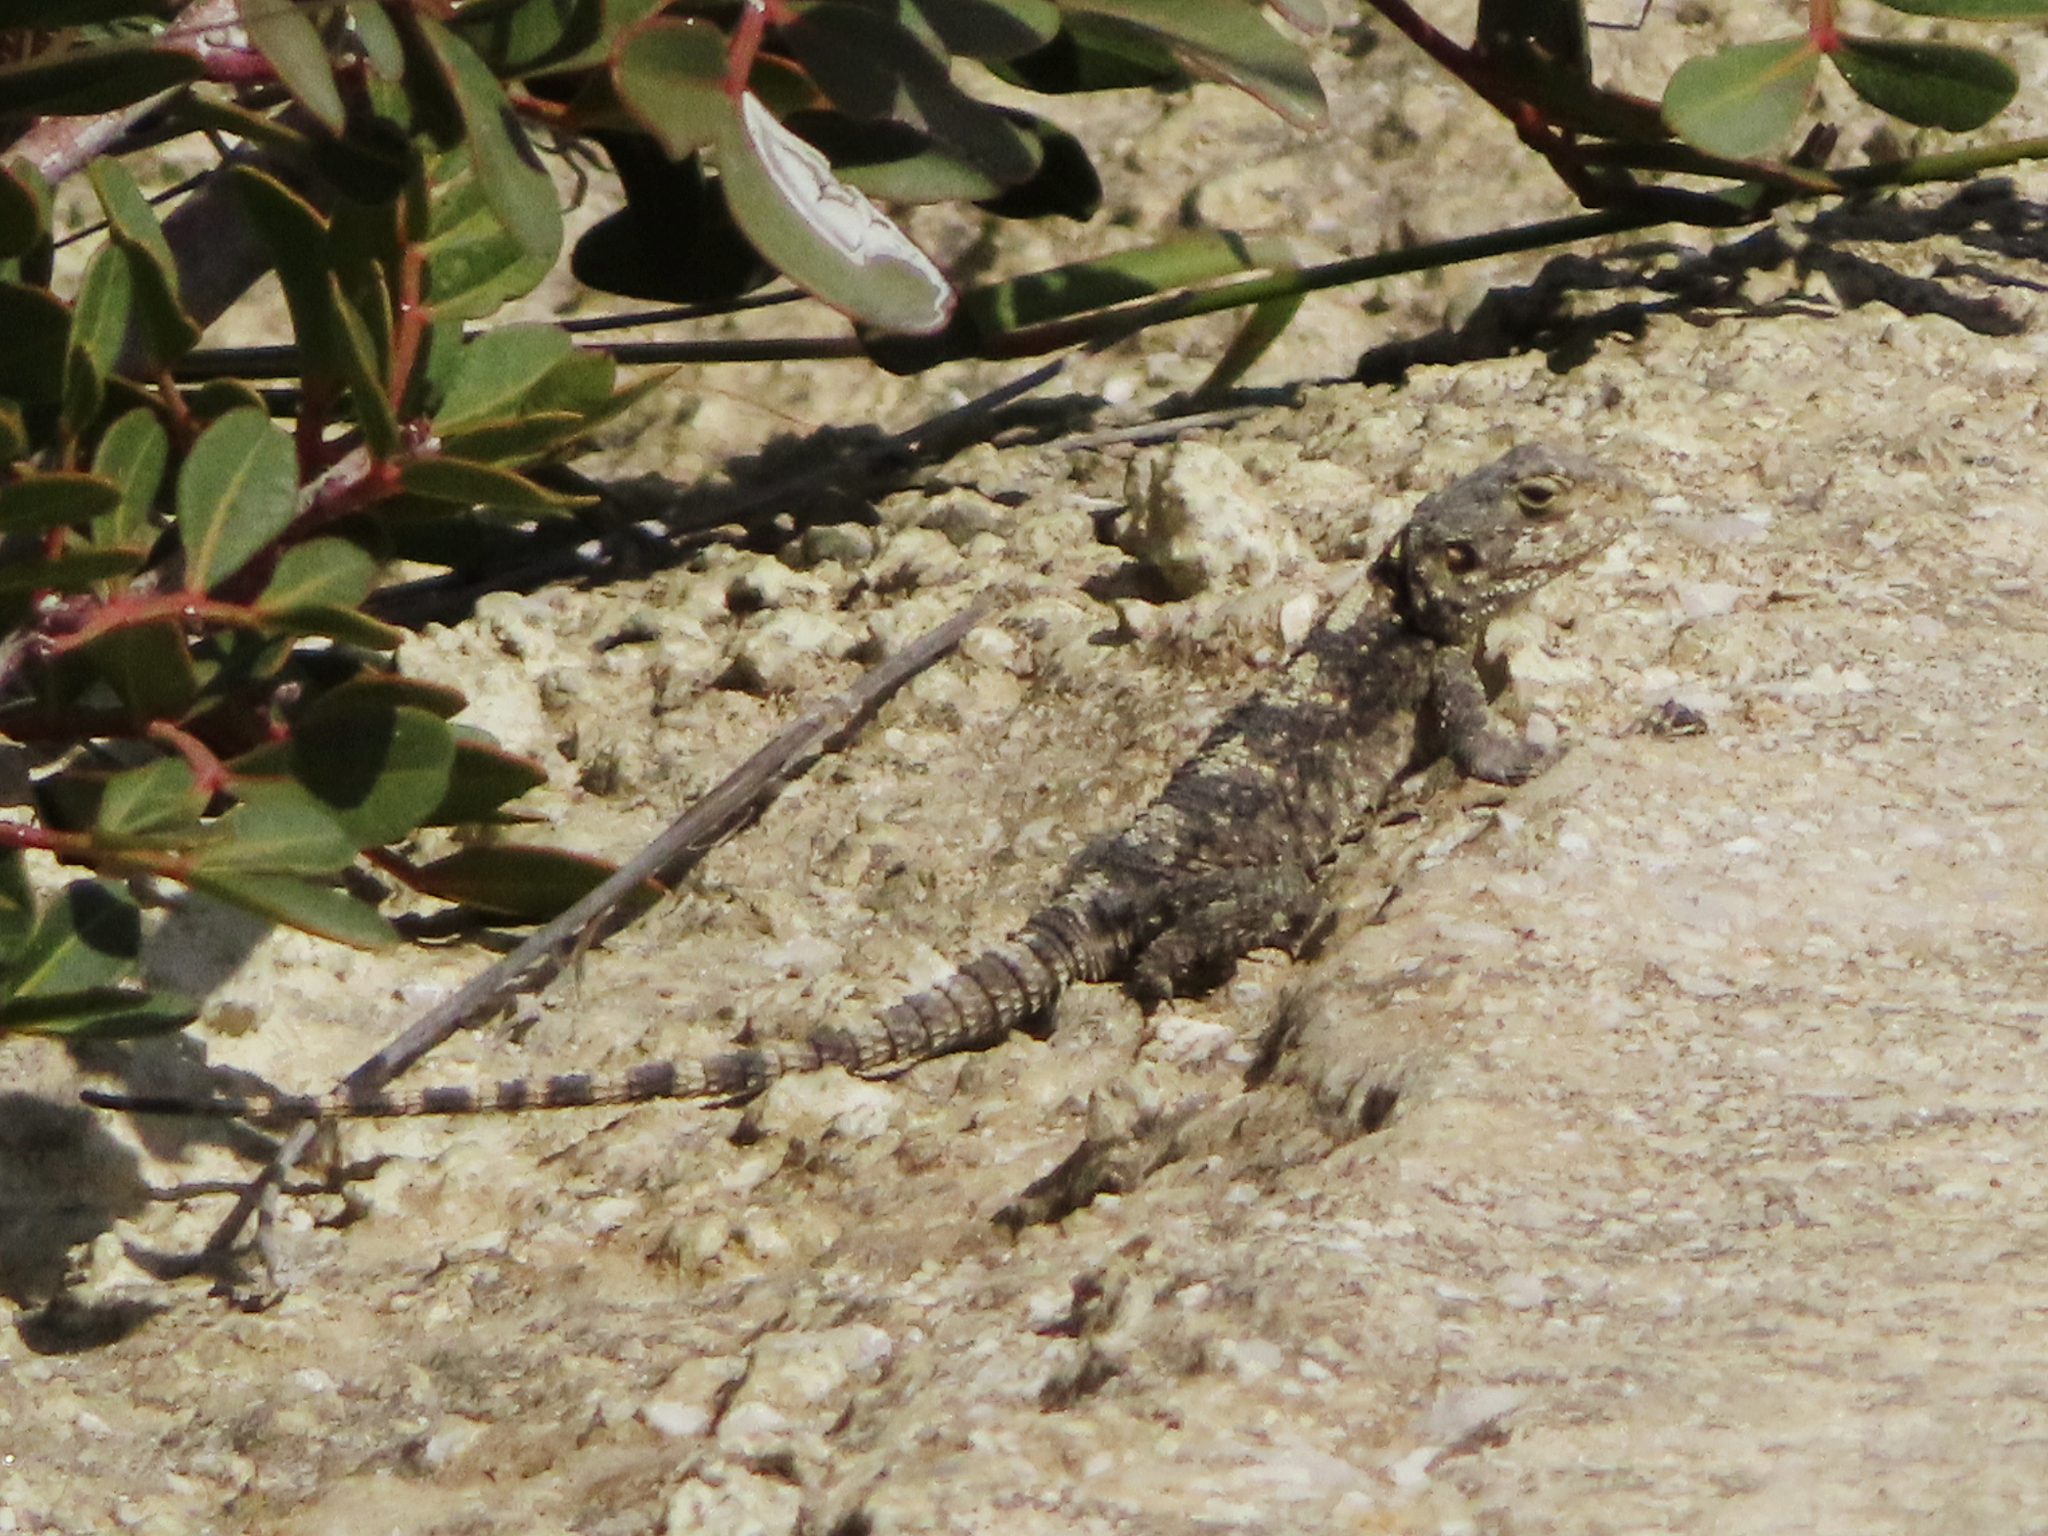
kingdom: Animalia
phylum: Chordata
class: Squamata
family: Agamidae
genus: Stellagama
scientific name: Stellagama stellio
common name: Starred agama
